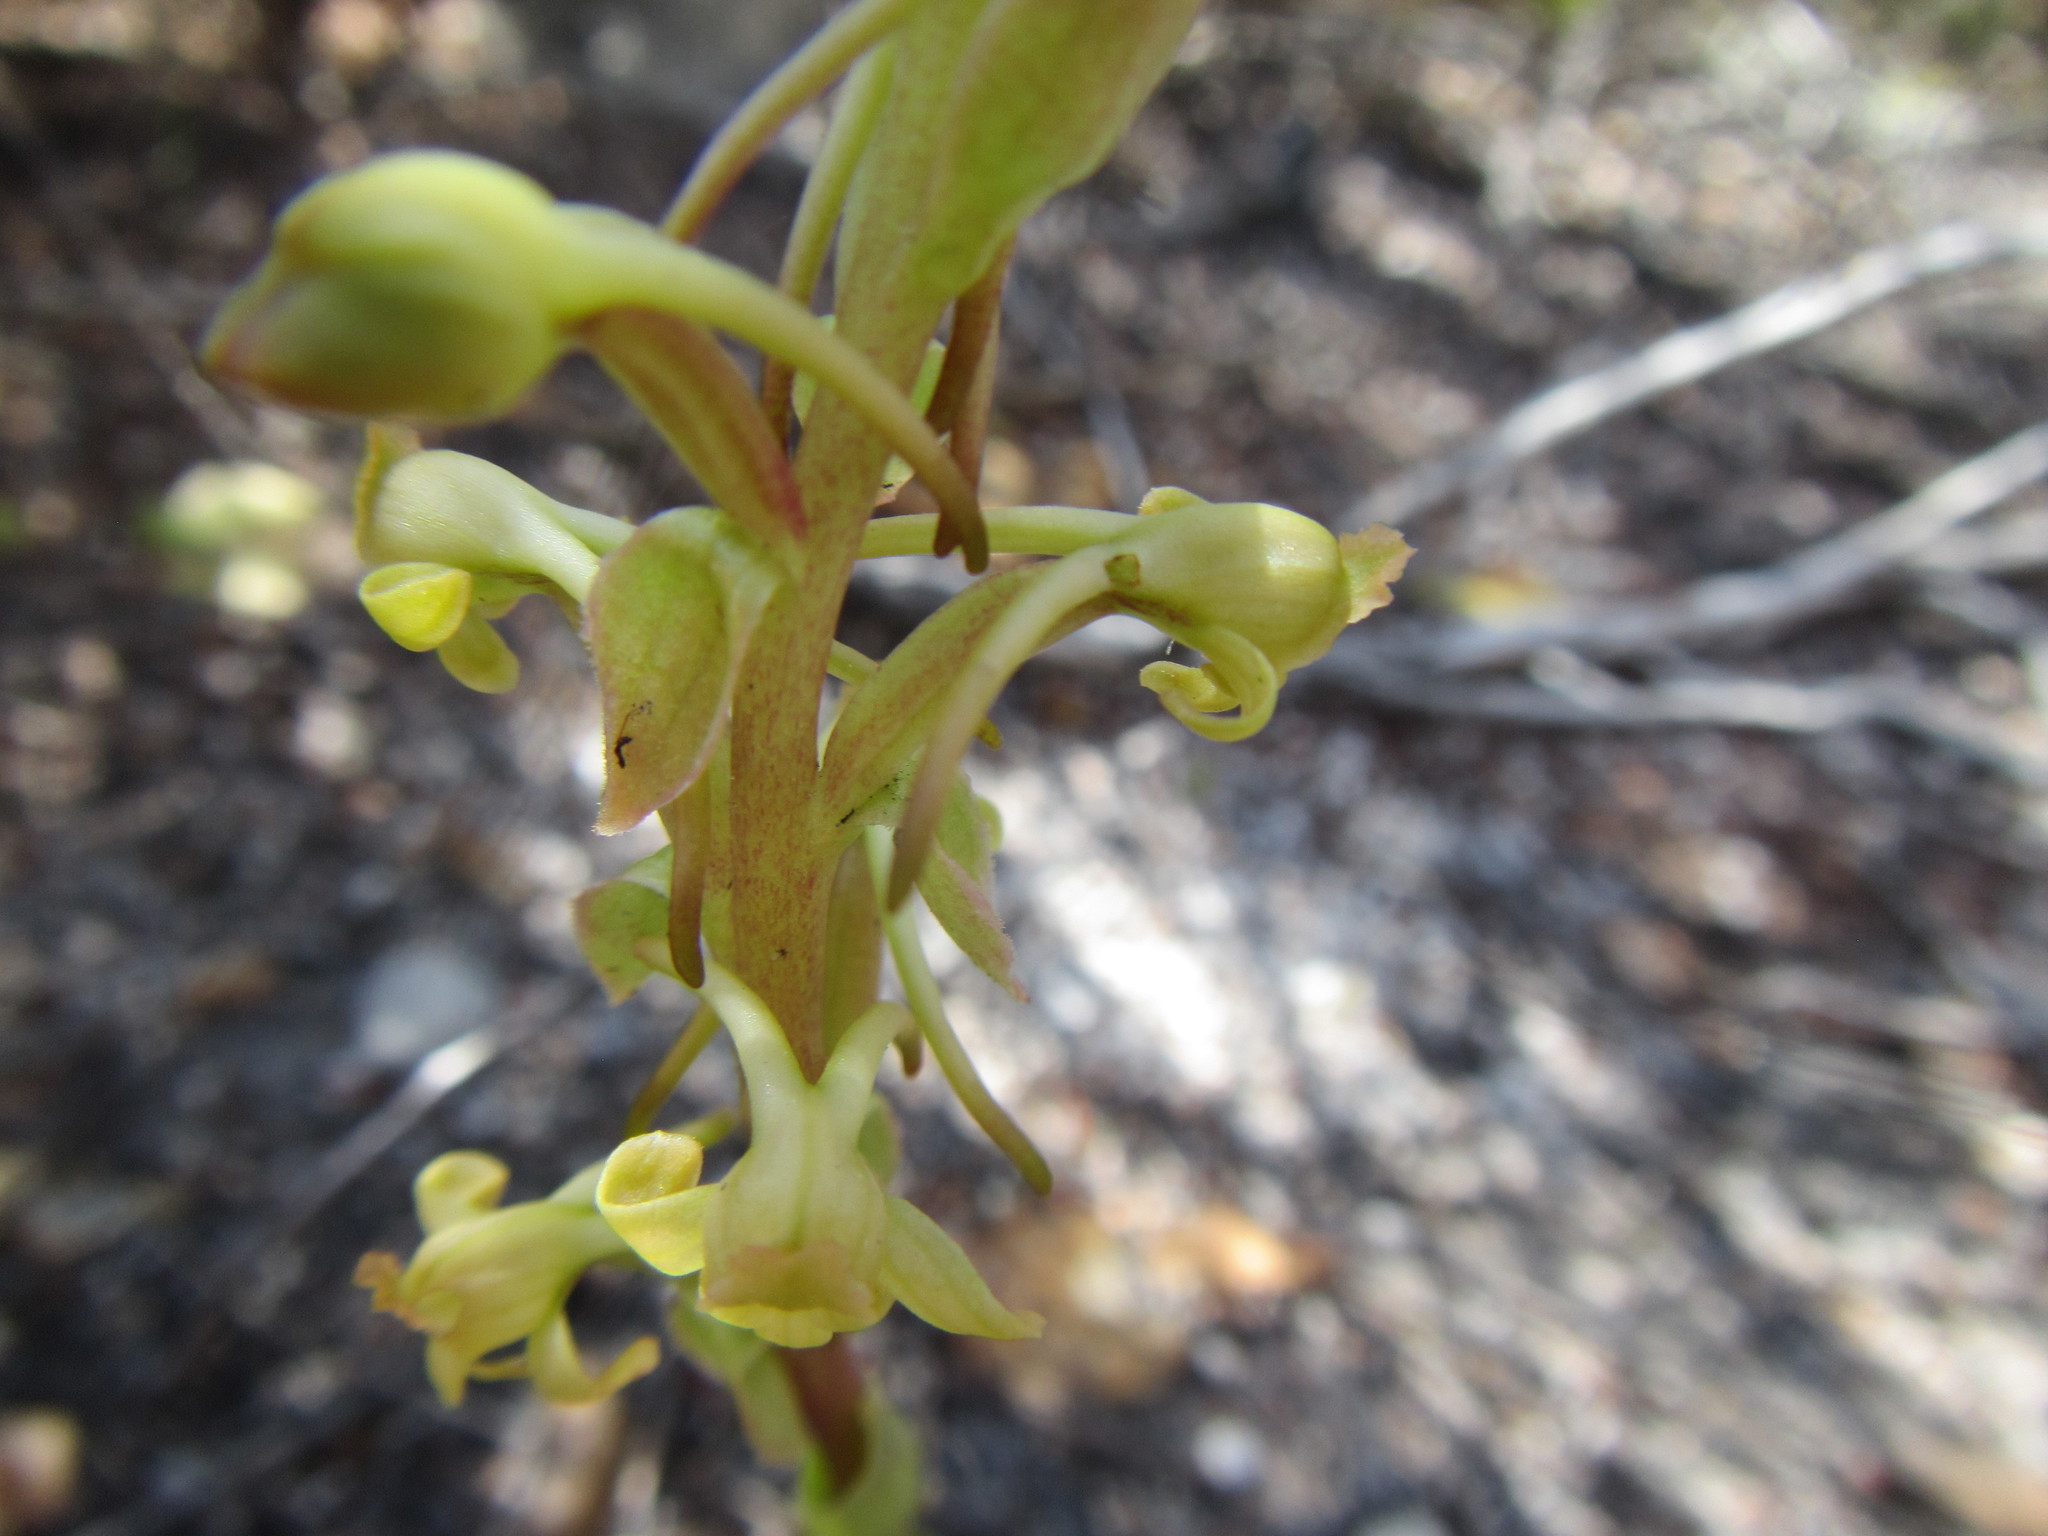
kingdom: Plantae
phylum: Tracheophyta
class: Liliopsida
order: Asparagales
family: Orchidaceae
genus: Satyrium
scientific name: Satyrium humile
